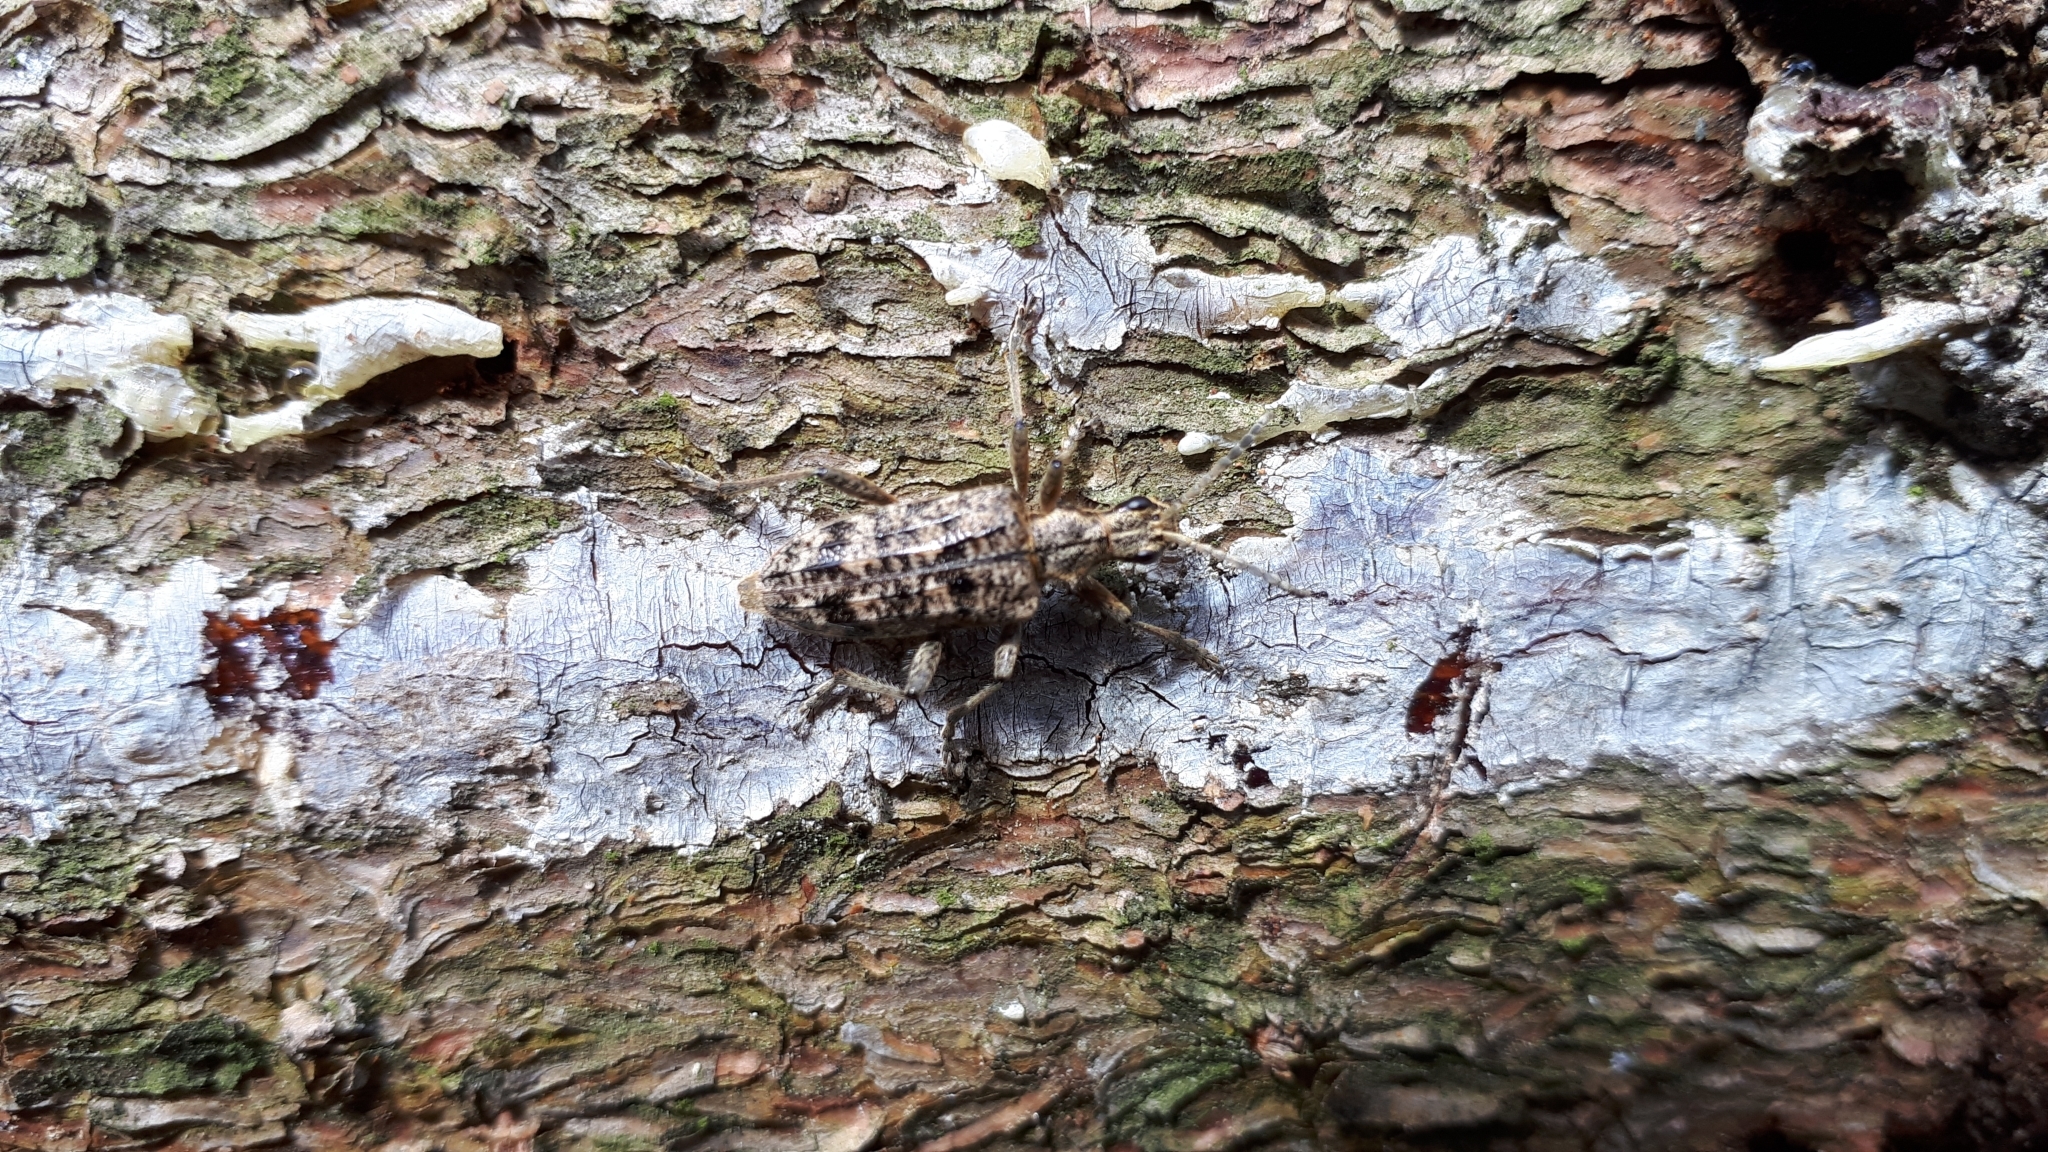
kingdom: Animalia
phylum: Arthropoda
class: Insecta
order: Coleoptera
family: Cerambycidae
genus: Rhagium
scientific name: Rhagium inquisitor
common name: Ribbed pine borer
